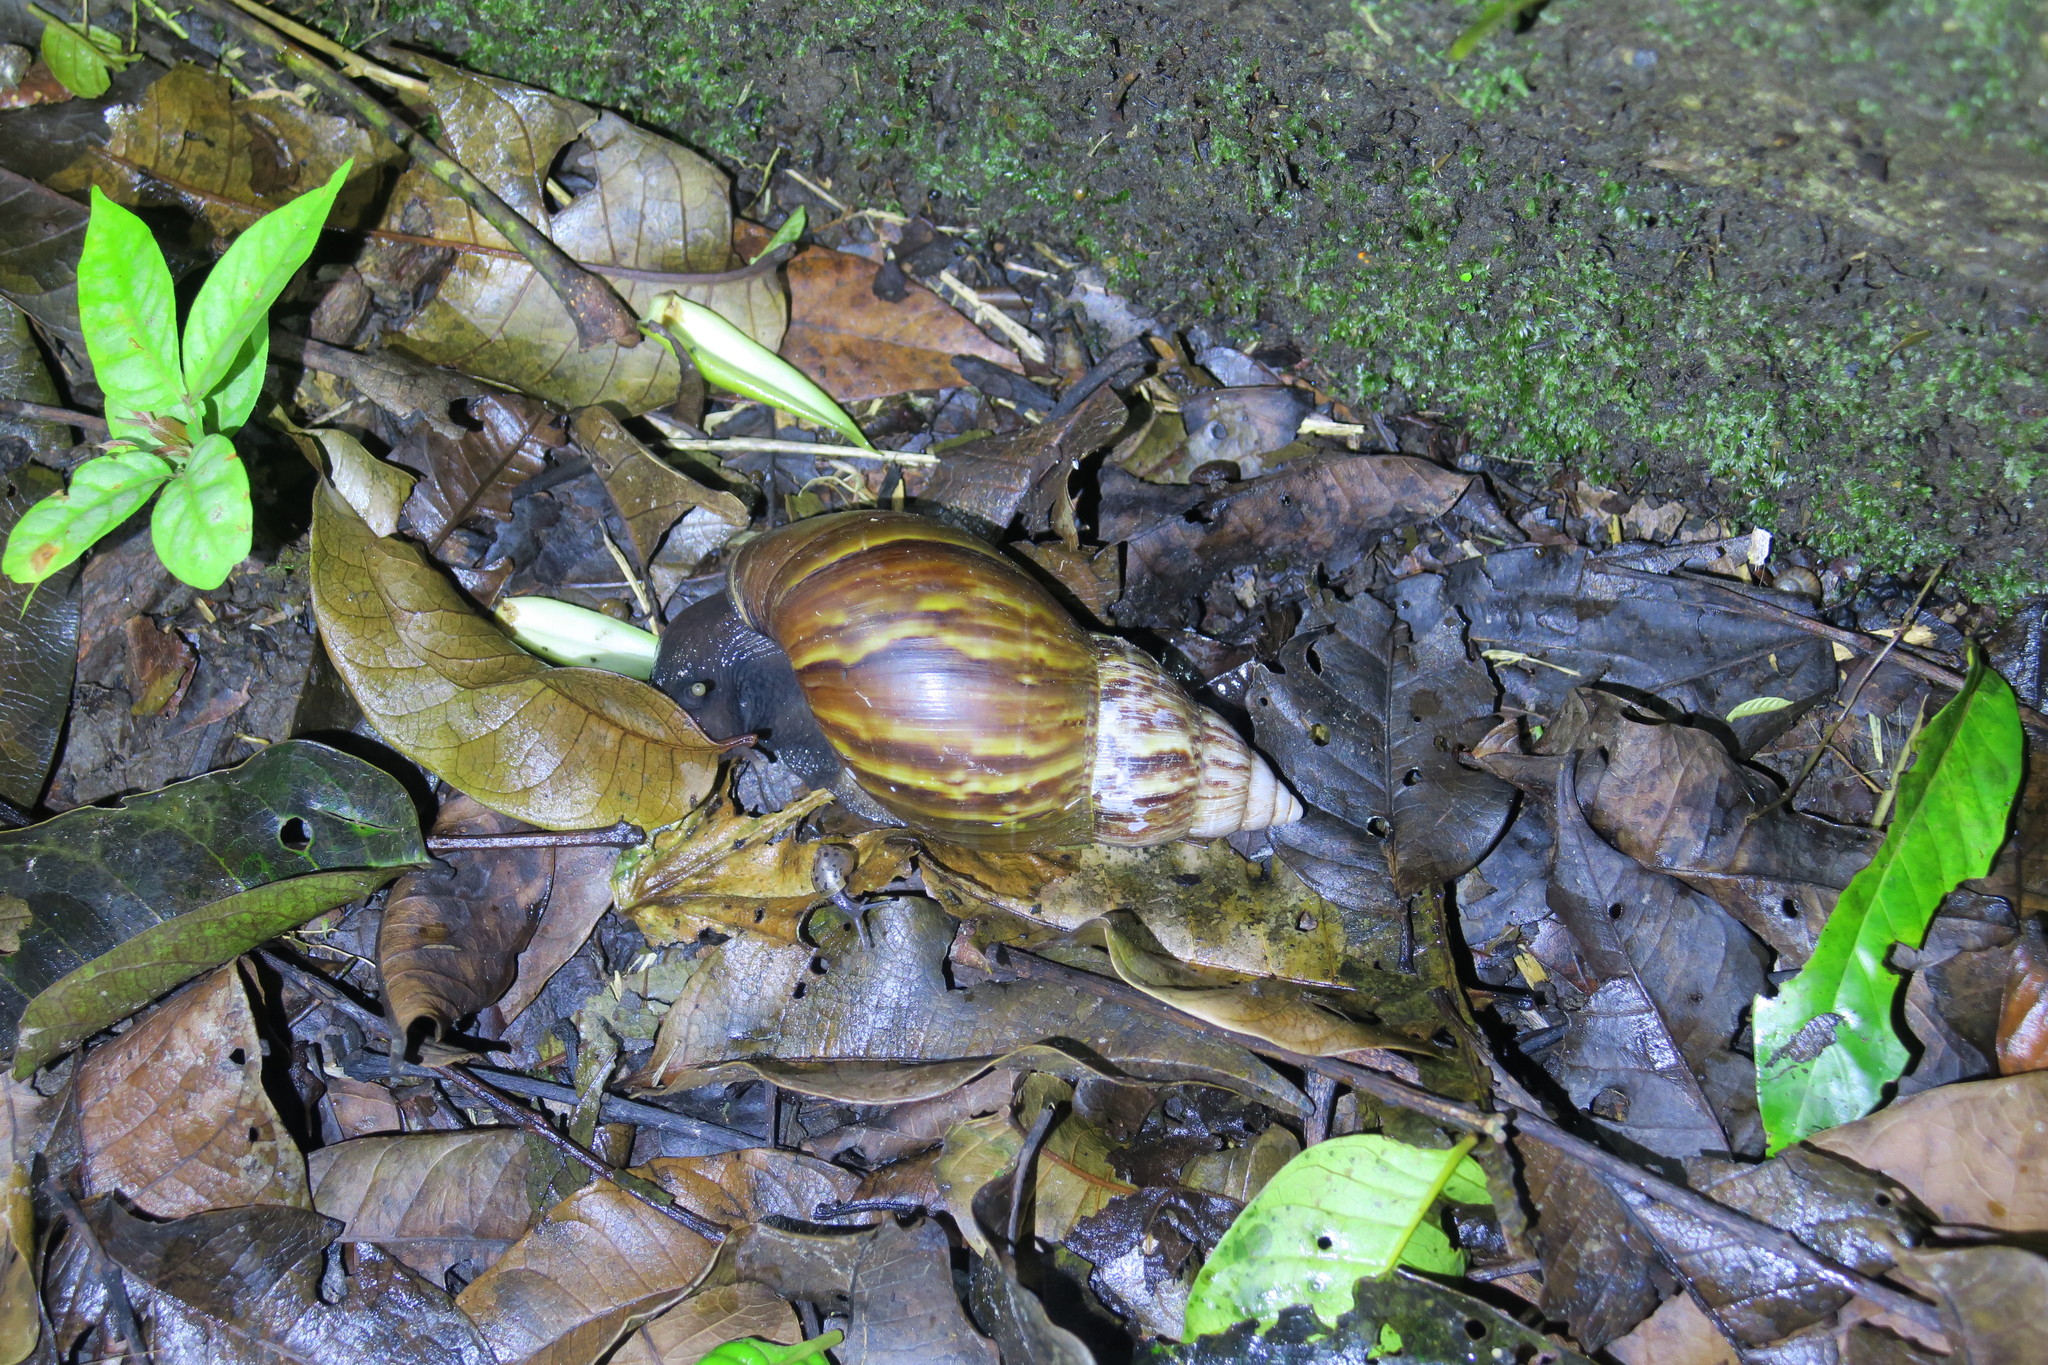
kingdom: Animalia
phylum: Mollusca
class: Gastropoda
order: Stylommatophora
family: Achatinidae
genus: Lissachatina
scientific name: Lissachatina fulica
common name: Giant african snail
